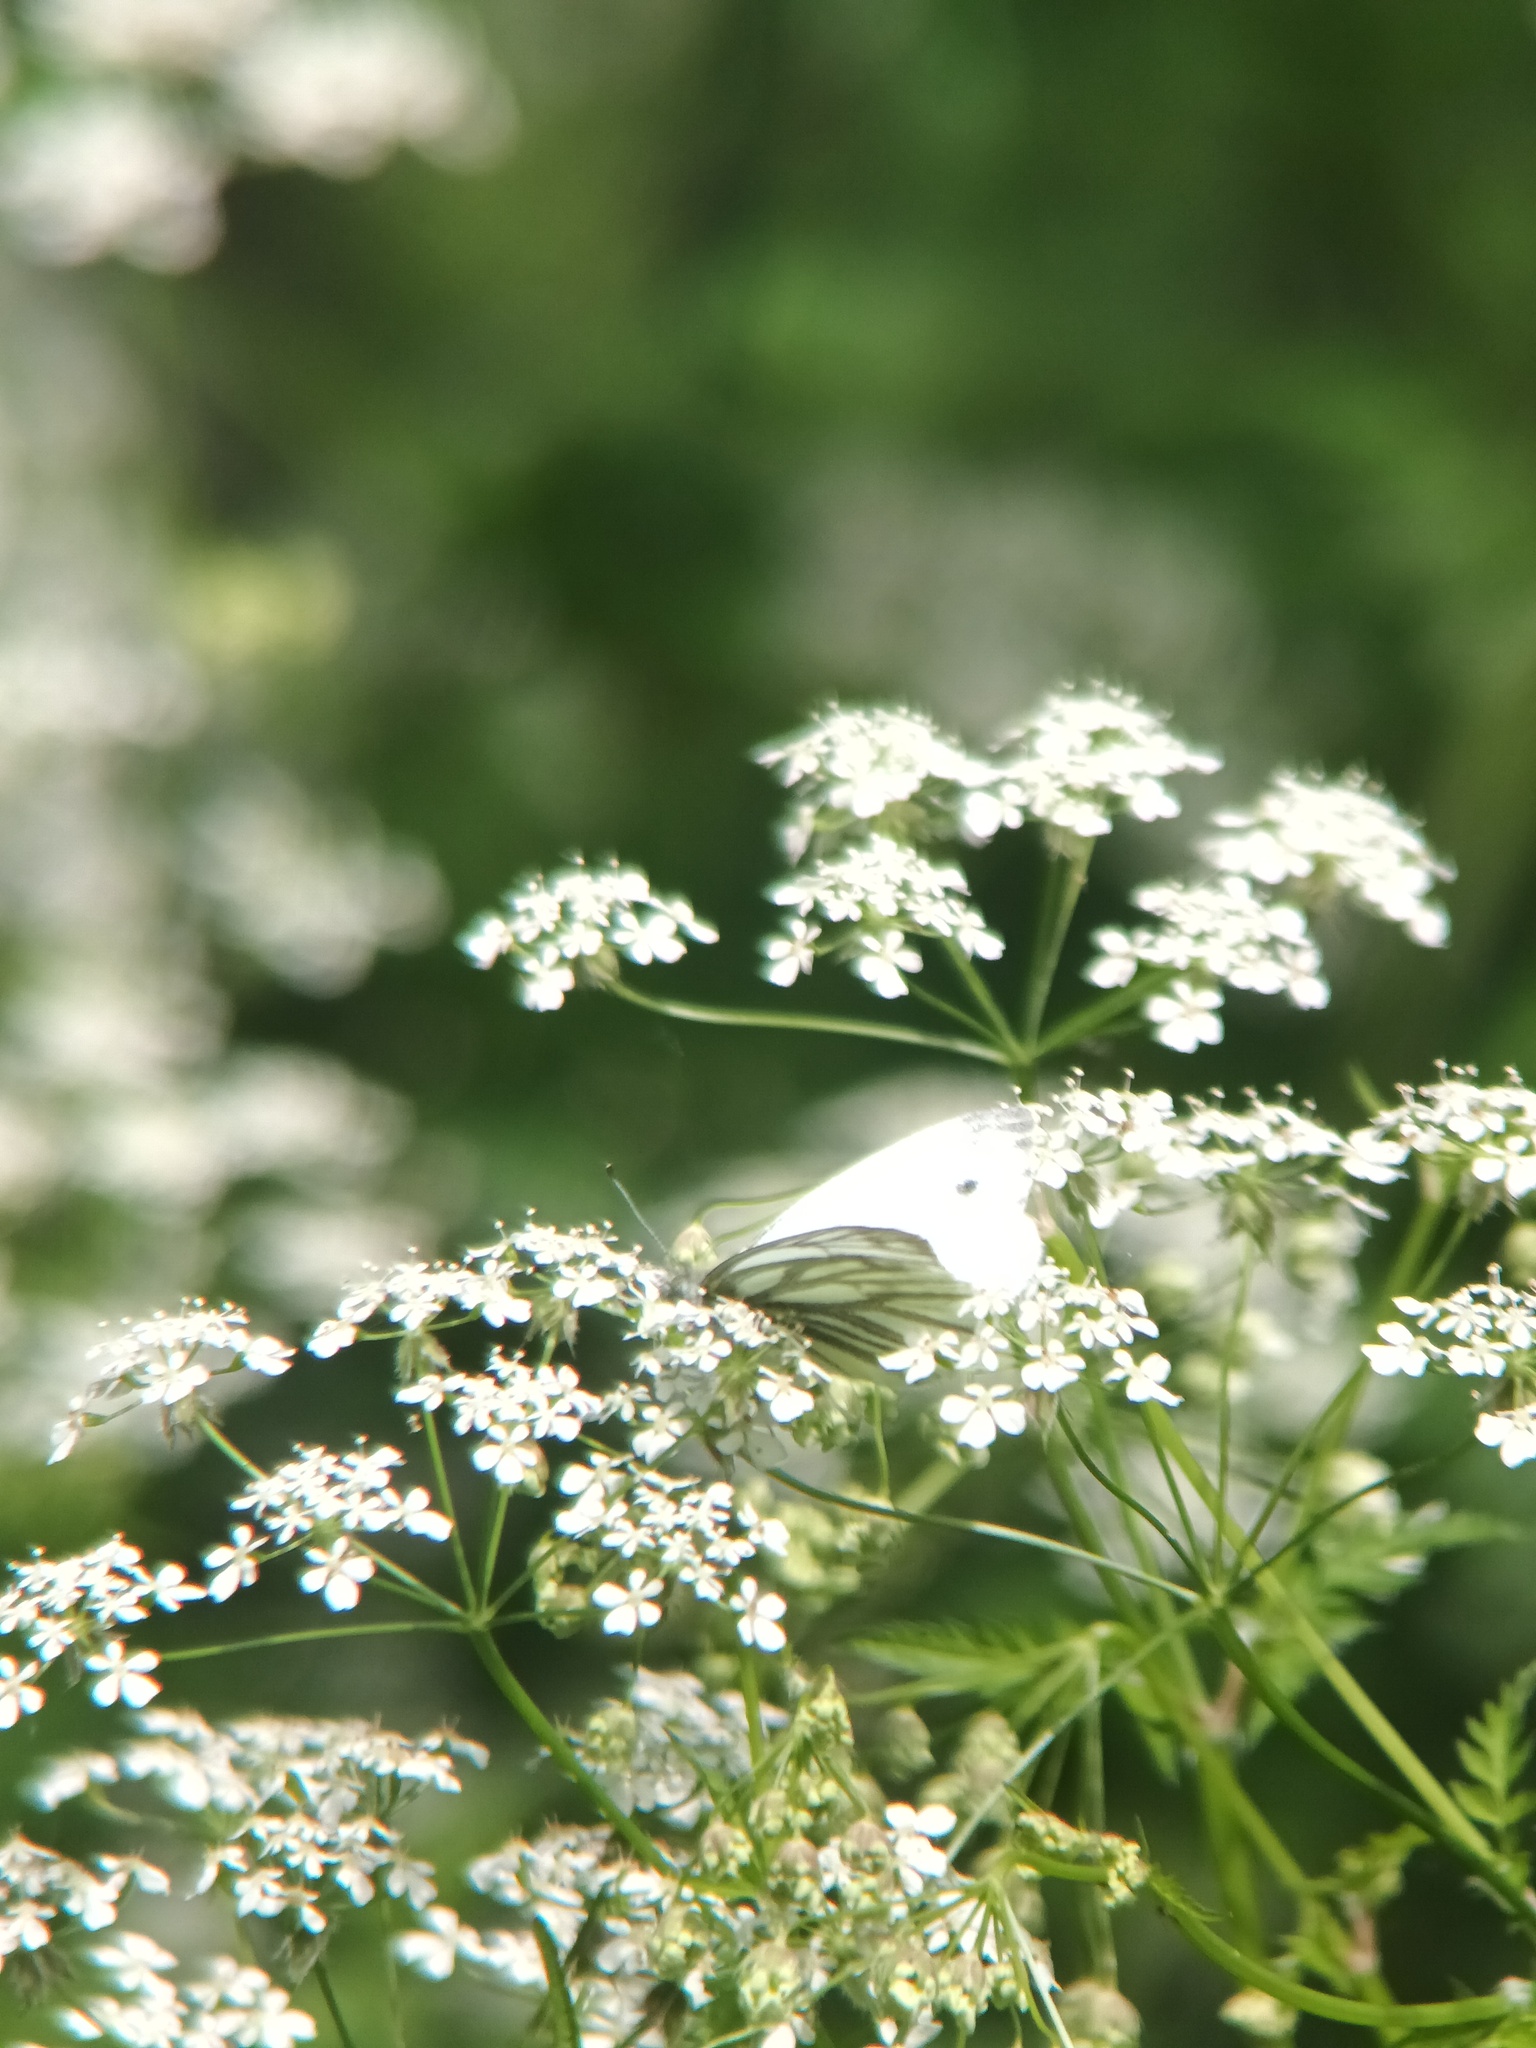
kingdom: Animalia
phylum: Arthropoda
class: Insecta
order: Lepidoptera
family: Pieridae
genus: Pieris
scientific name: Pieris napi
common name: Green-veined white
